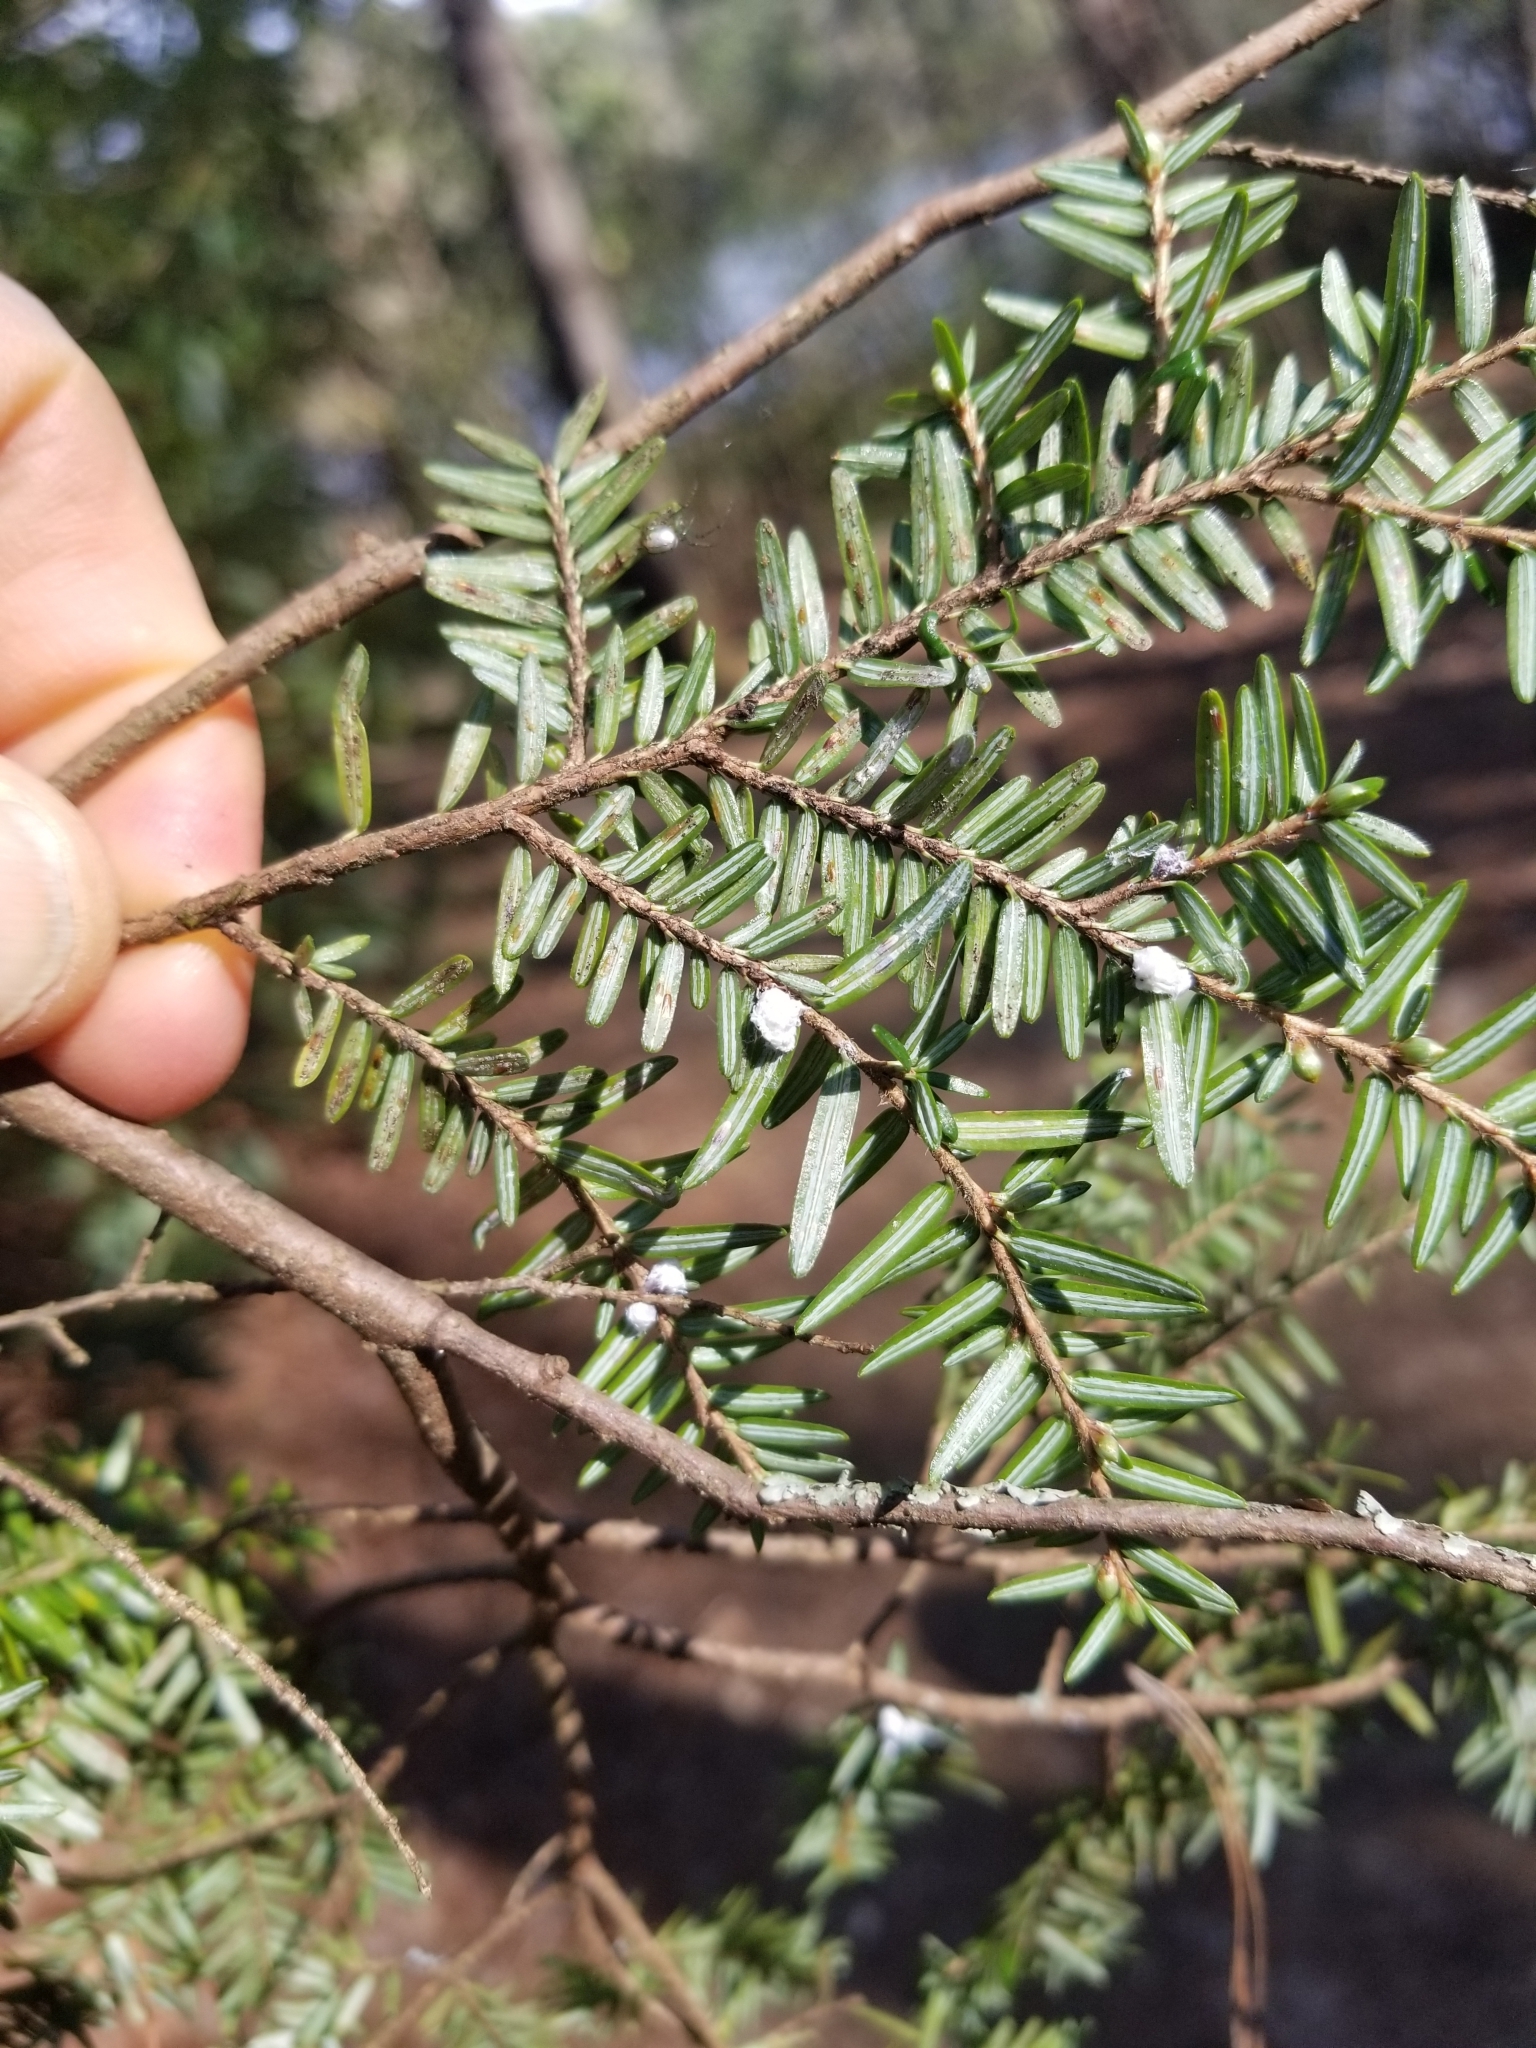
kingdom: Animalia
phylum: Arthropoda
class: Insecta
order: Hemiptera
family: Adelgidae
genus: Adelges
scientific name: Adelges tsugae
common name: Hemlock woolly adelgid
